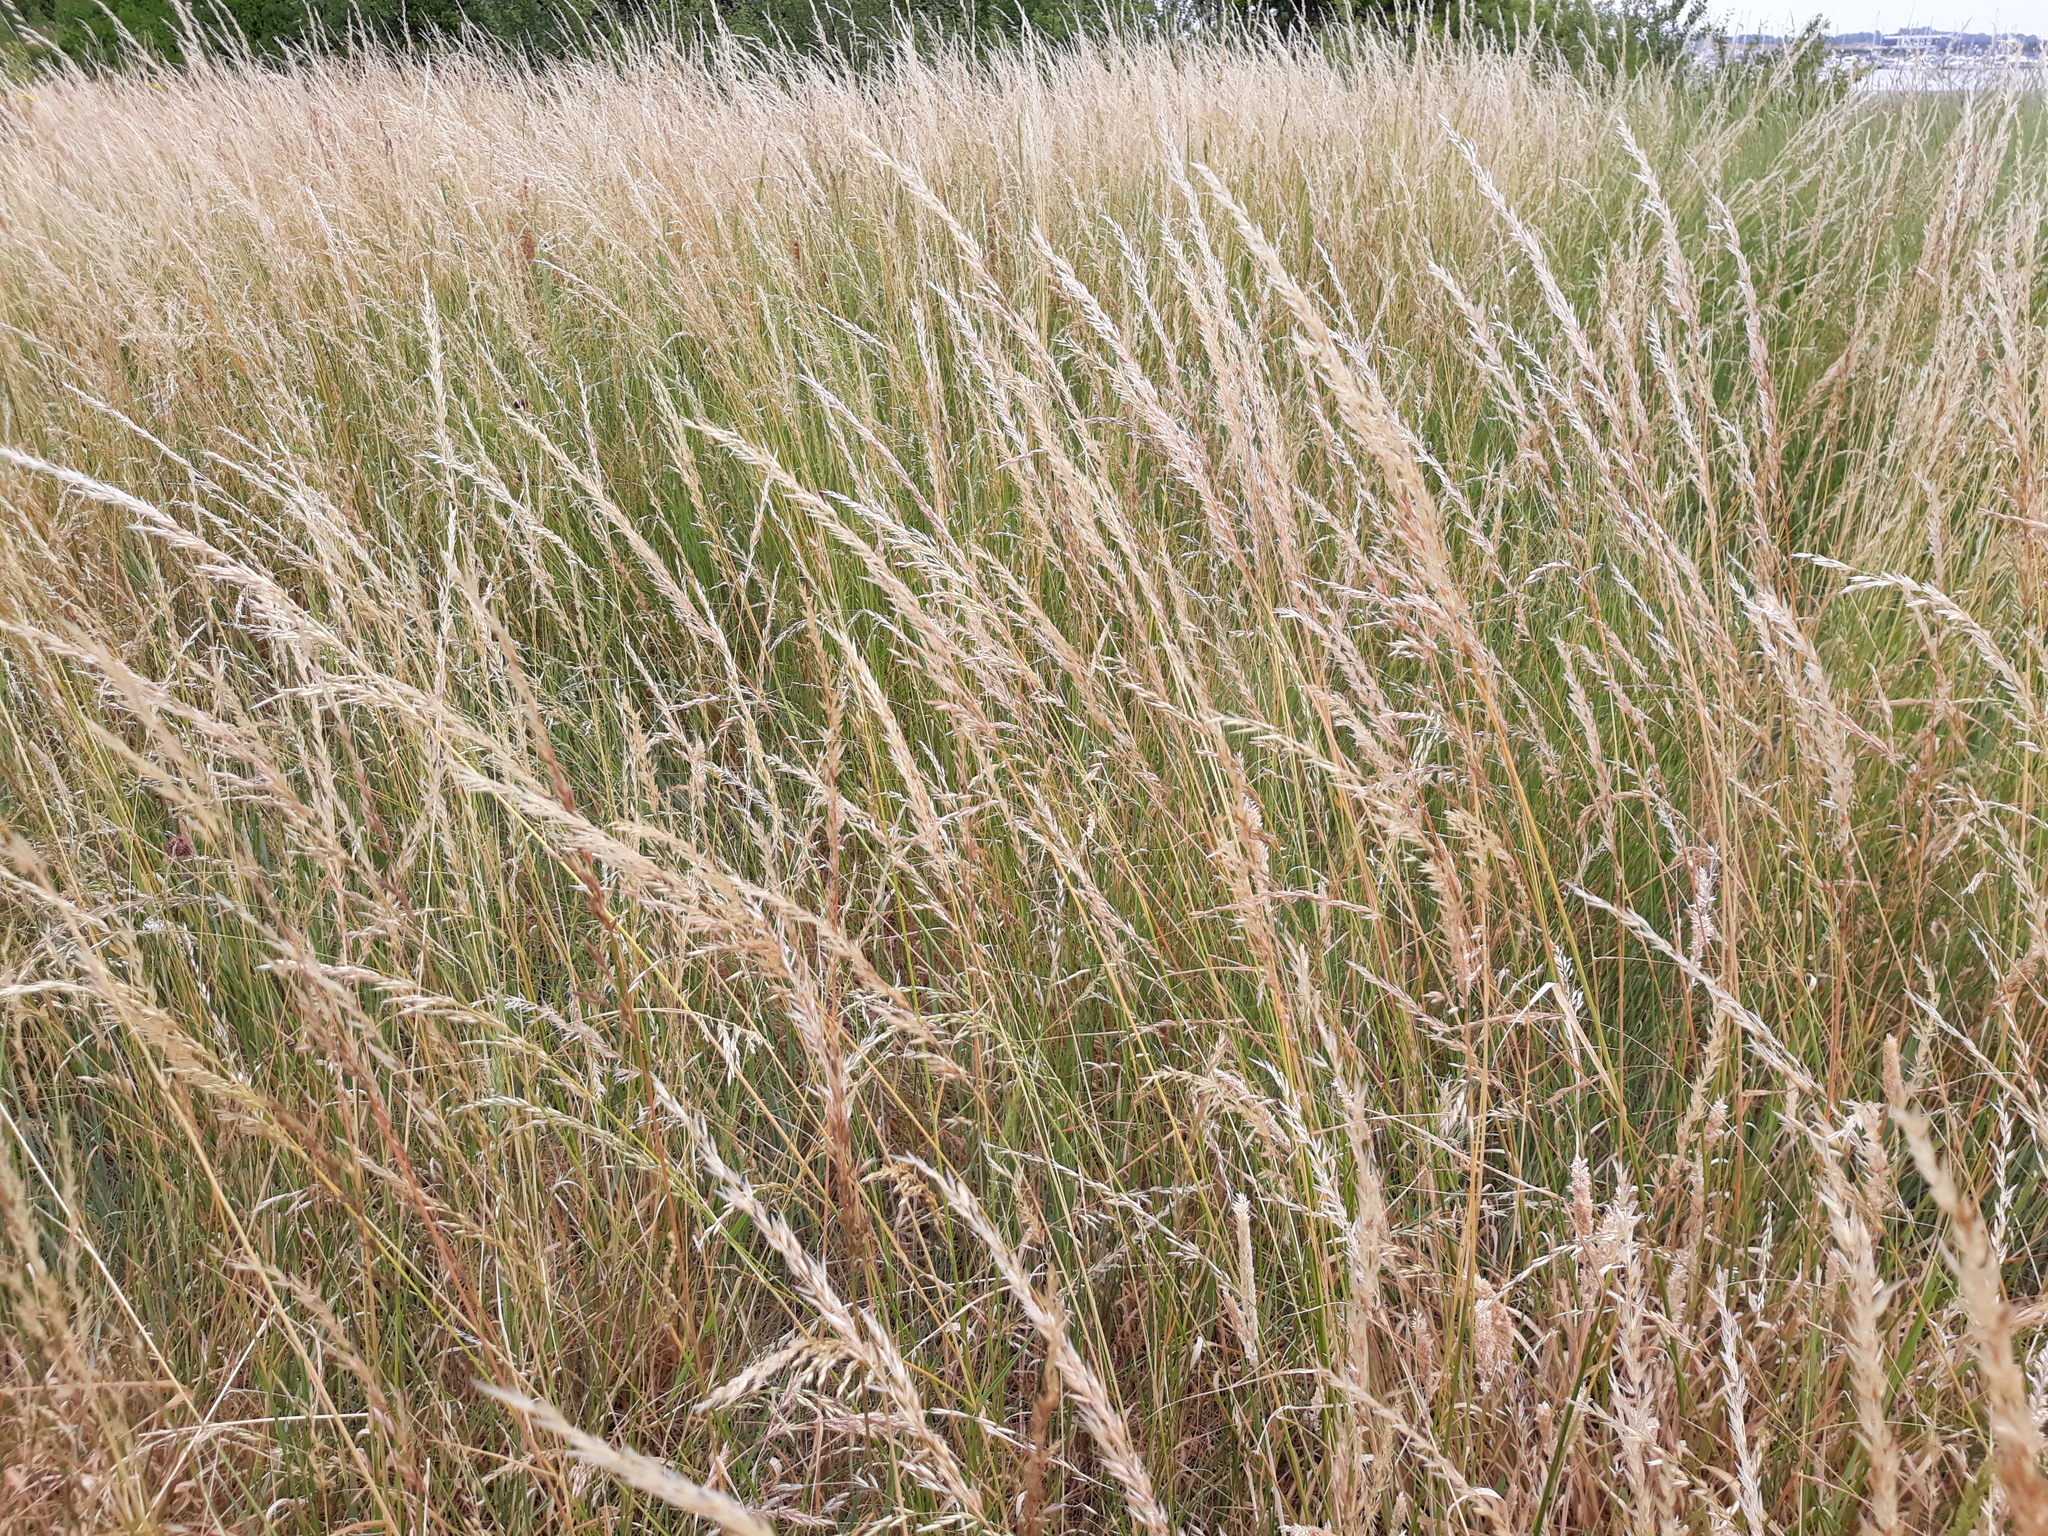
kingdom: Plantae
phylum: Tracheophyta
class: Liliopsida
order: Poales
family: Poaceae
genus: Arrhenatherum
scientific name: Arrhenatherum elatius
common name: Tall oatgrass
